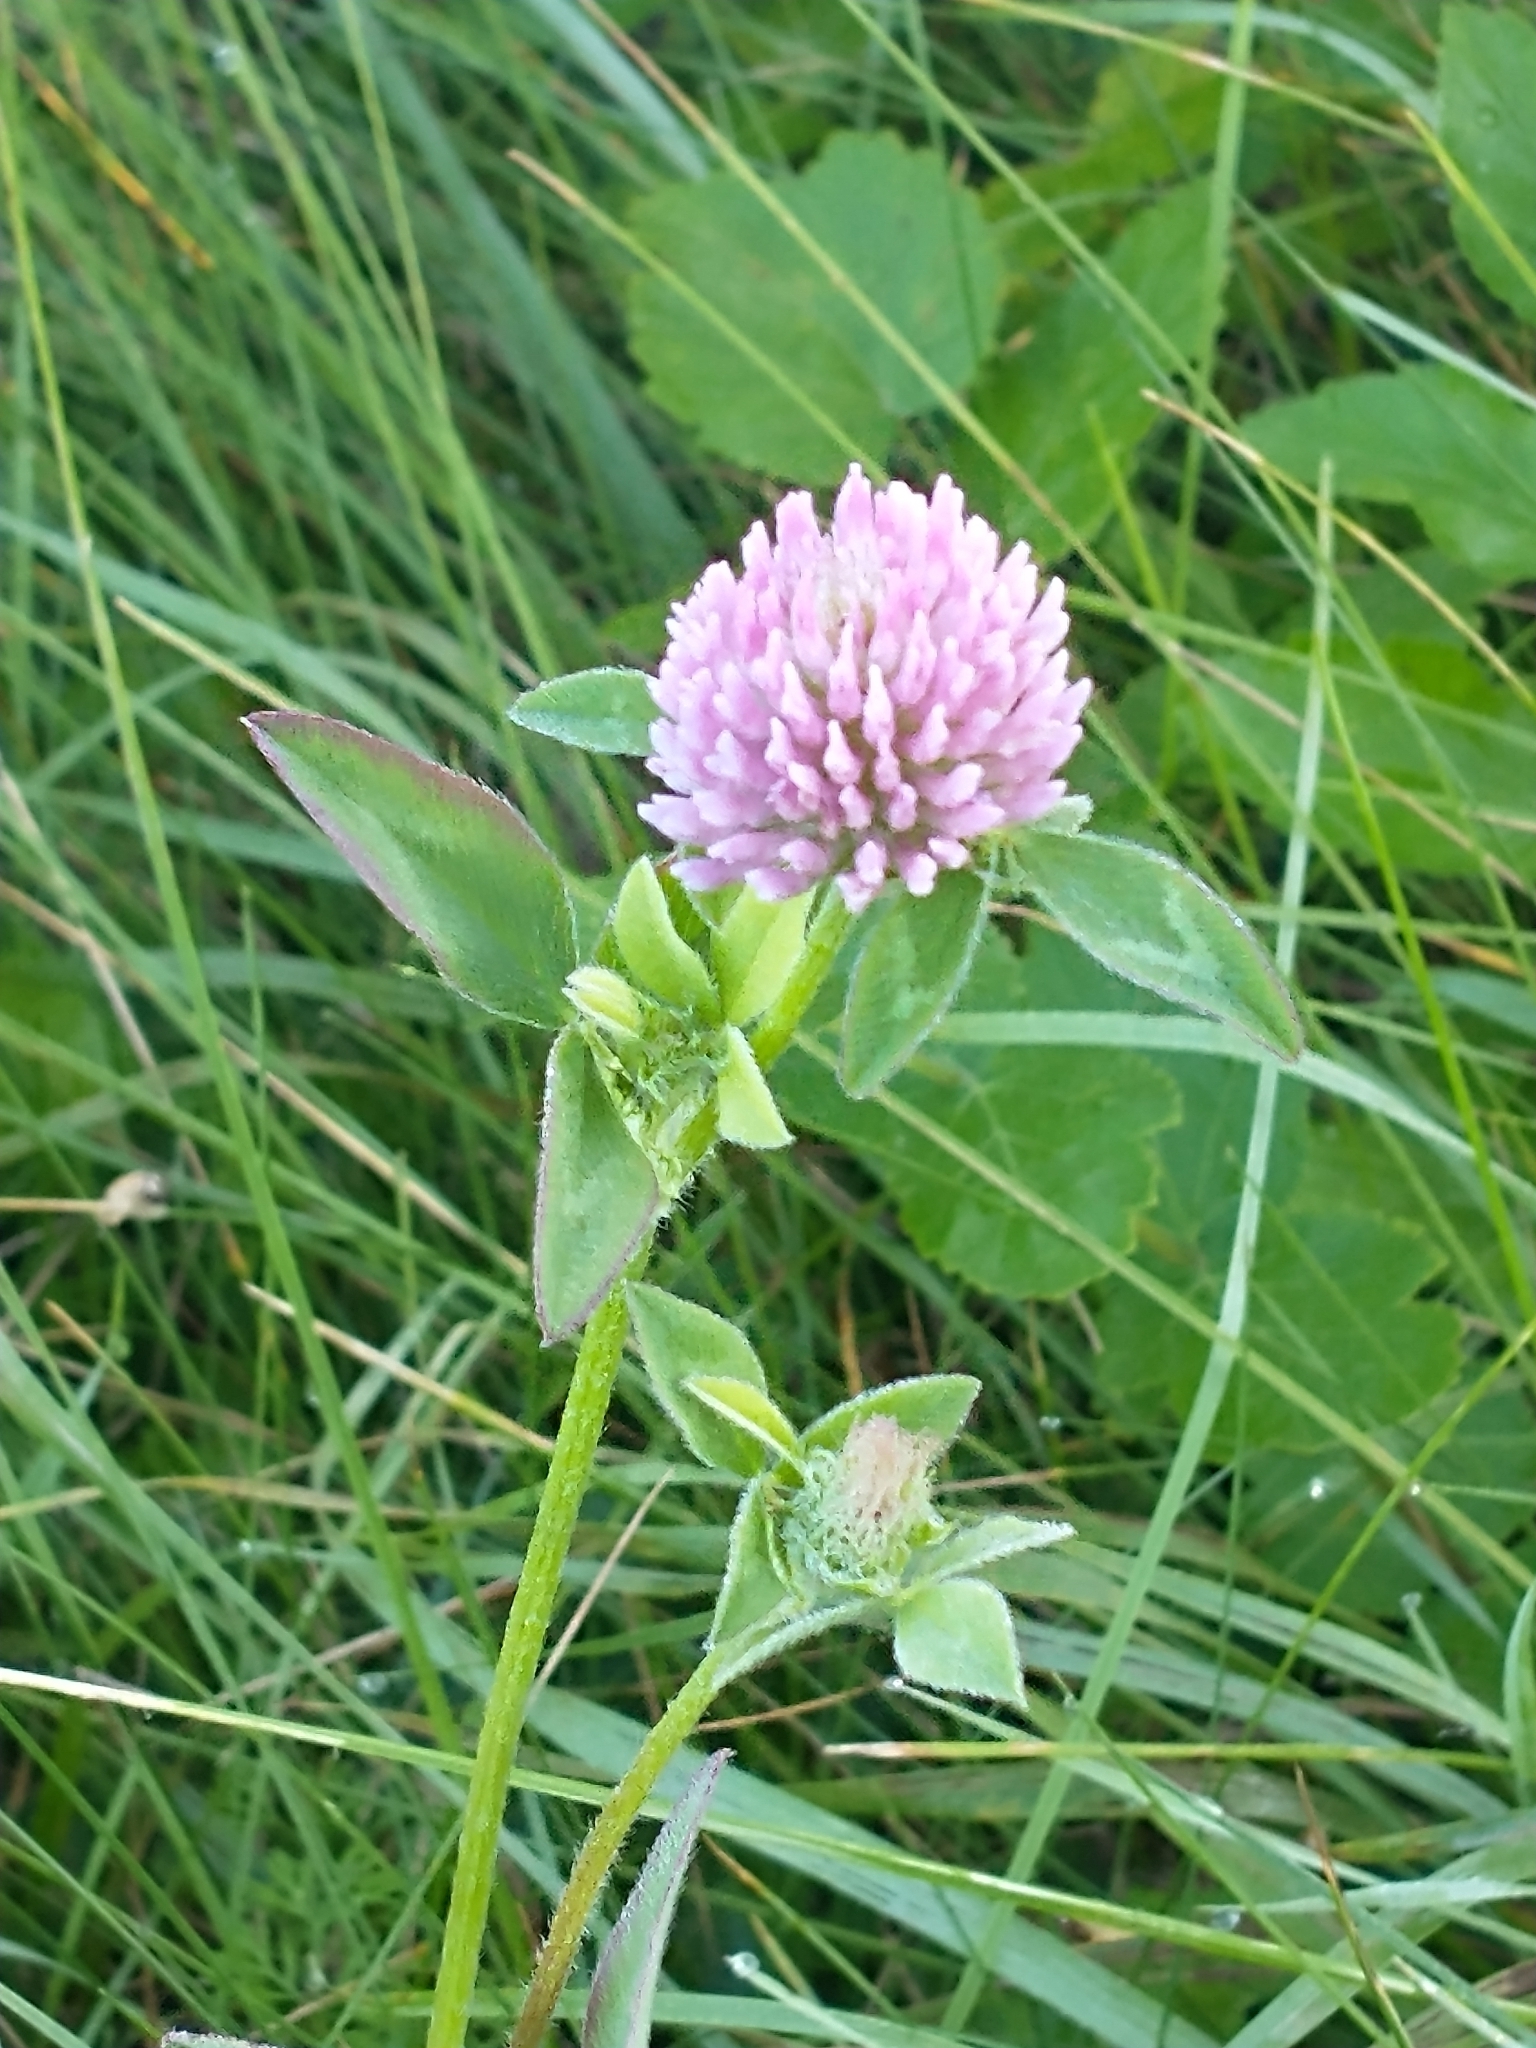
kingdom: Plantae
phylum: Tracheophyta
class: Magnoliopsida
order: Fabales
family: Fabaceae
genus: Trifolium
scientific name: Trifolium pratense
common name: Red clover
